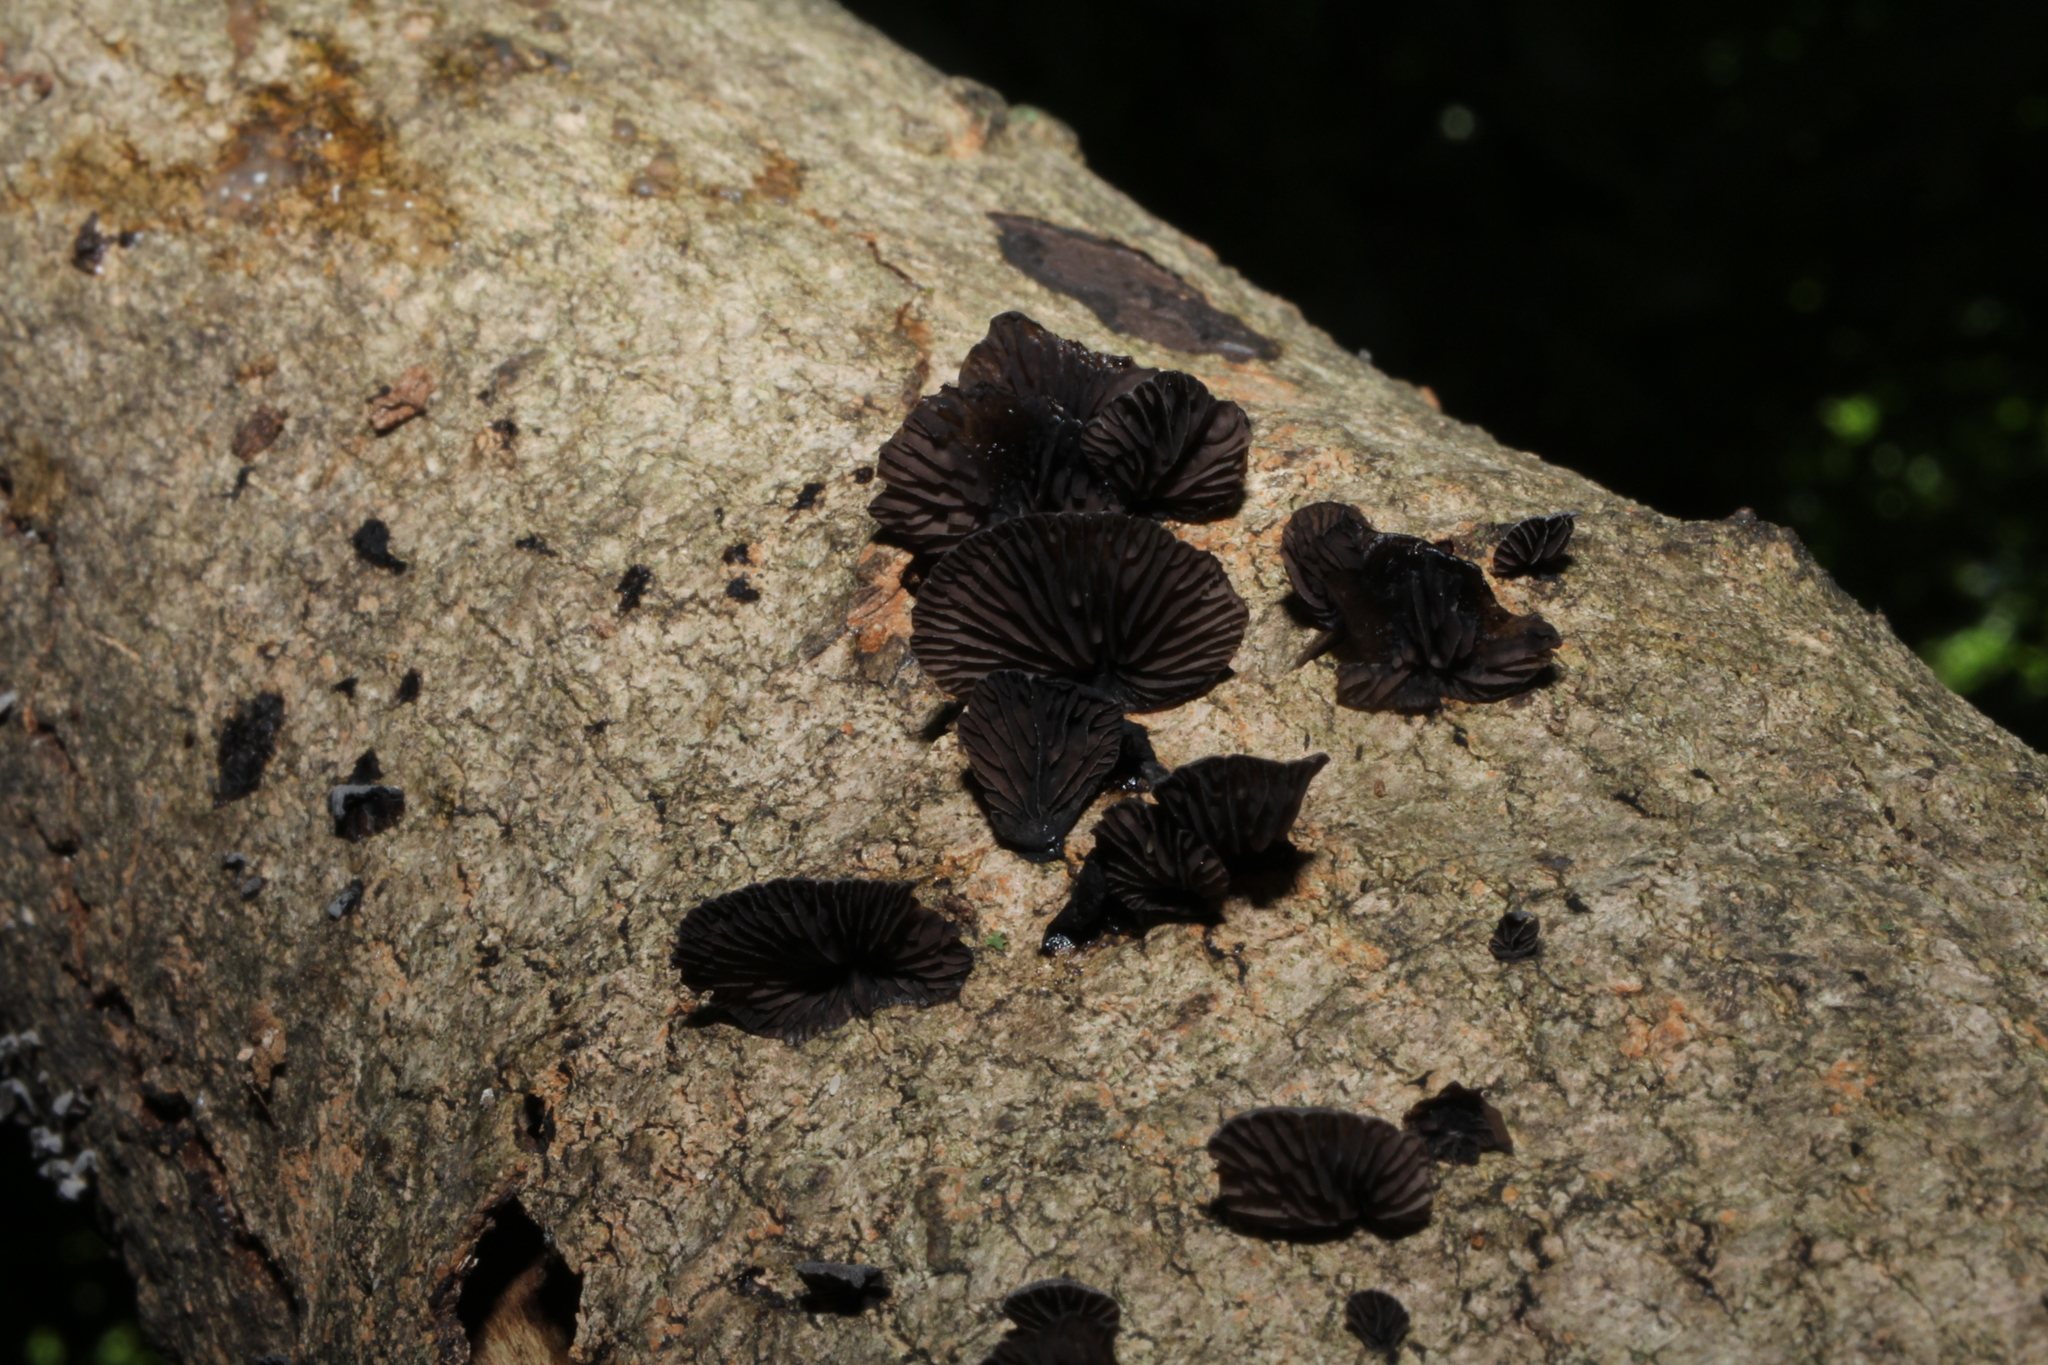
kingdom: Fungi
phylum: Basidiomycota
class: Agaricomycetes
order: Agaricales
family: Pleurotaceae
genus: Resupinatus
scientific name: Resupinatus applicatus
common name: Smoked oysterling
